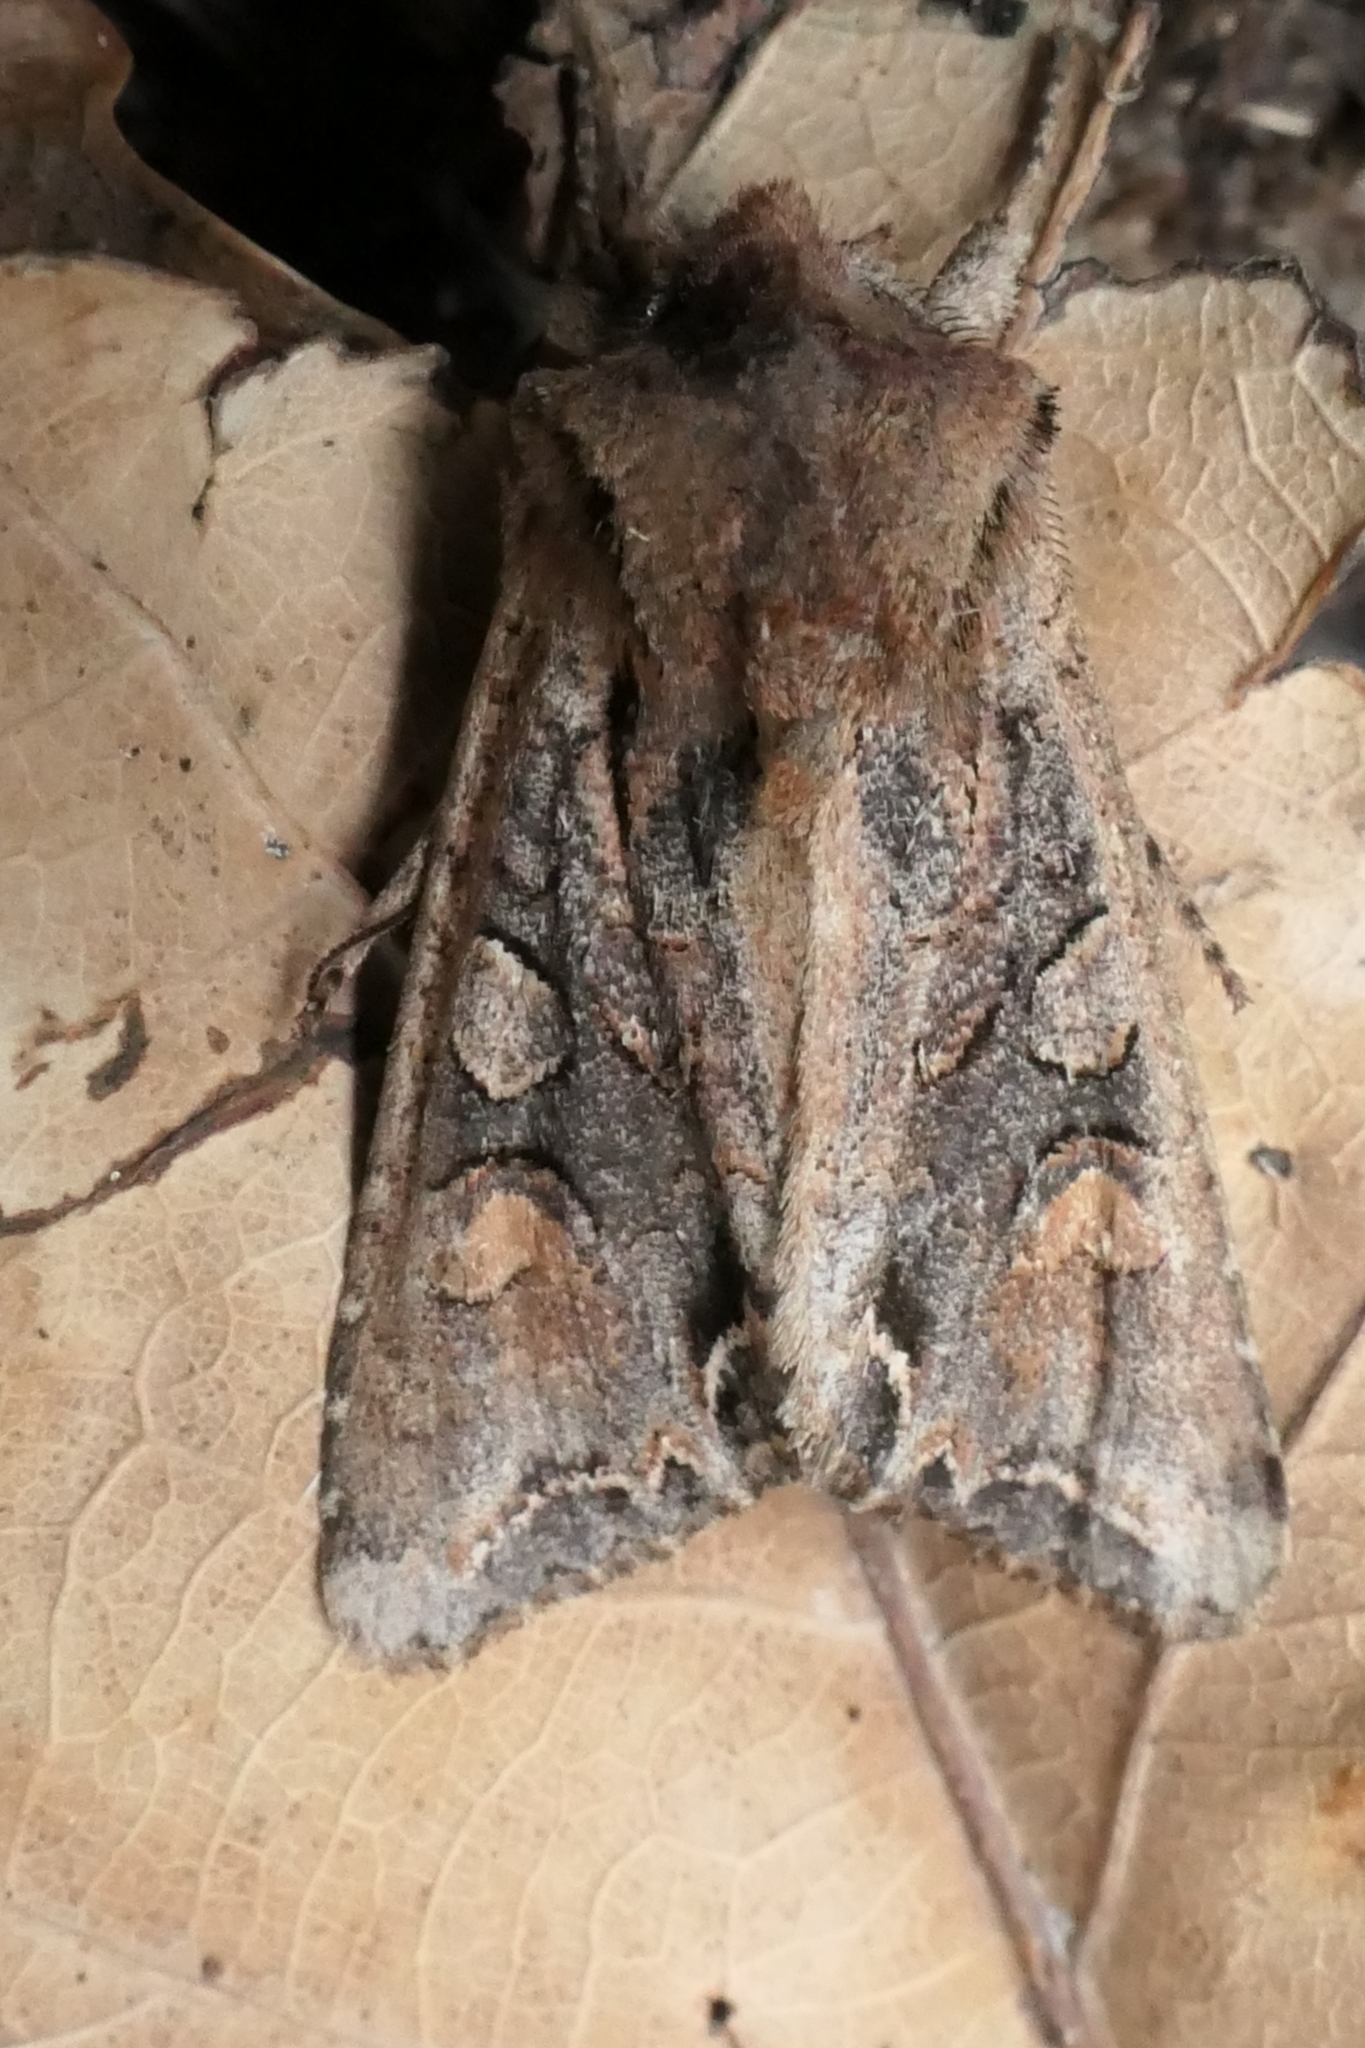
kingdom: Animalia
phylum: Arthropoda
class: Insecta
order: Lepidoptera
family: Noctuidae
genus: Ichneutica
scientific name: Ichneutica
